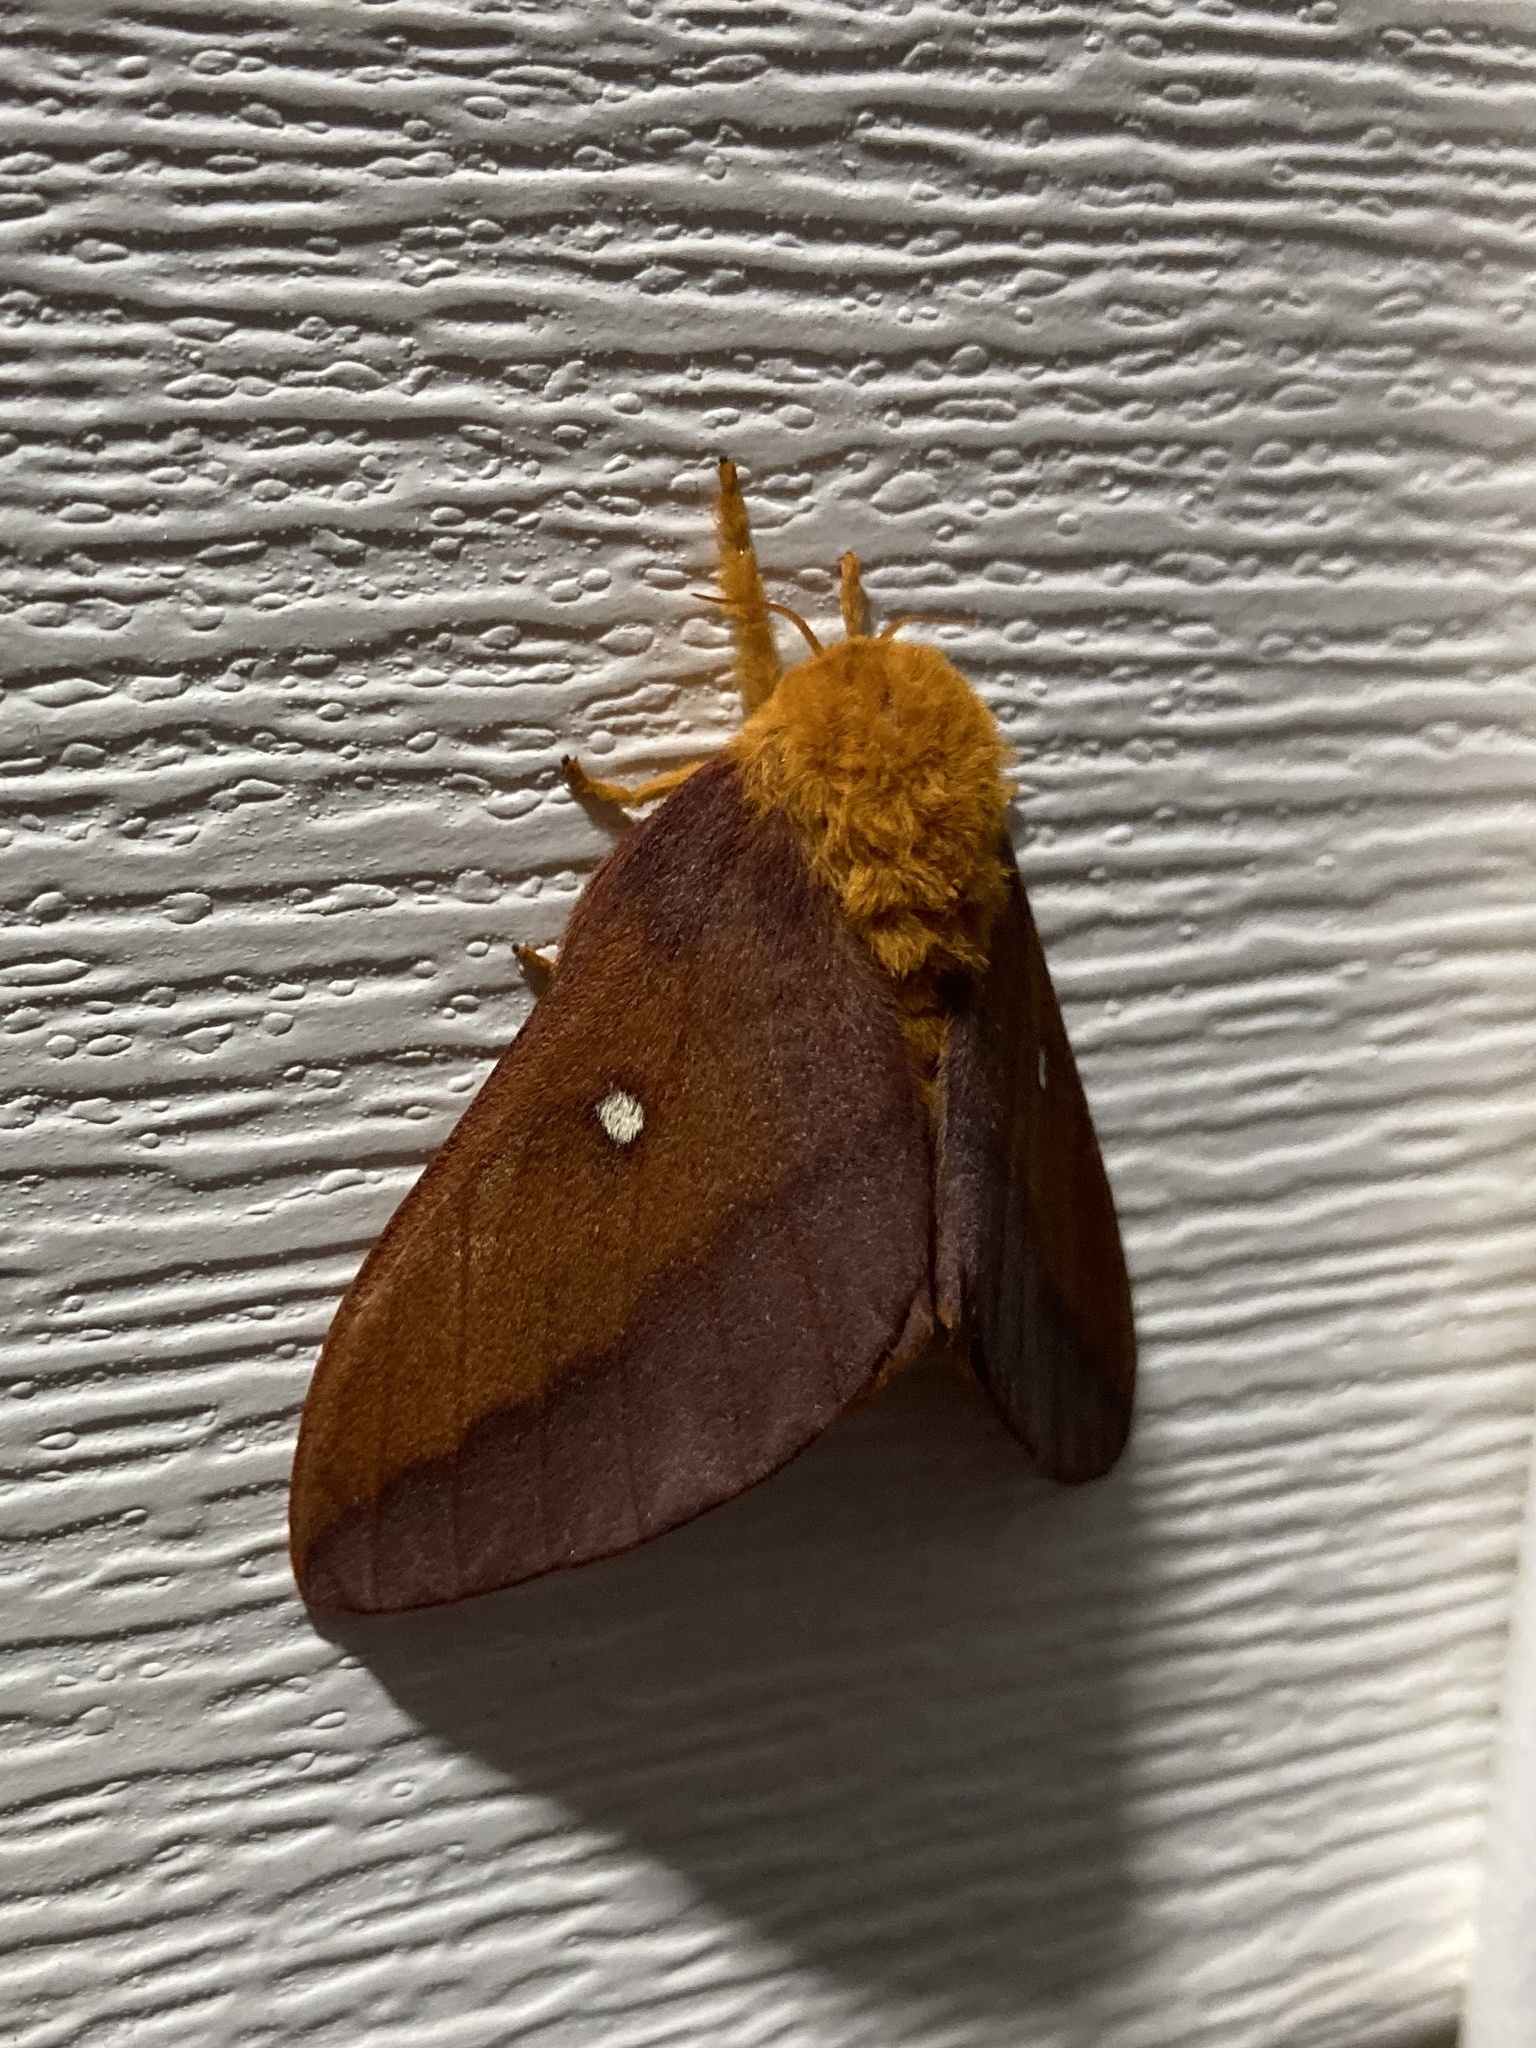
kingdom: Animalia
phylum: Arthropoda
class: Insecta
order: Lepidoptera
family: Saturniidae
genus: Anisota
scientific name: Anisota virginiensis
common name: Pink striped oakworm moth
